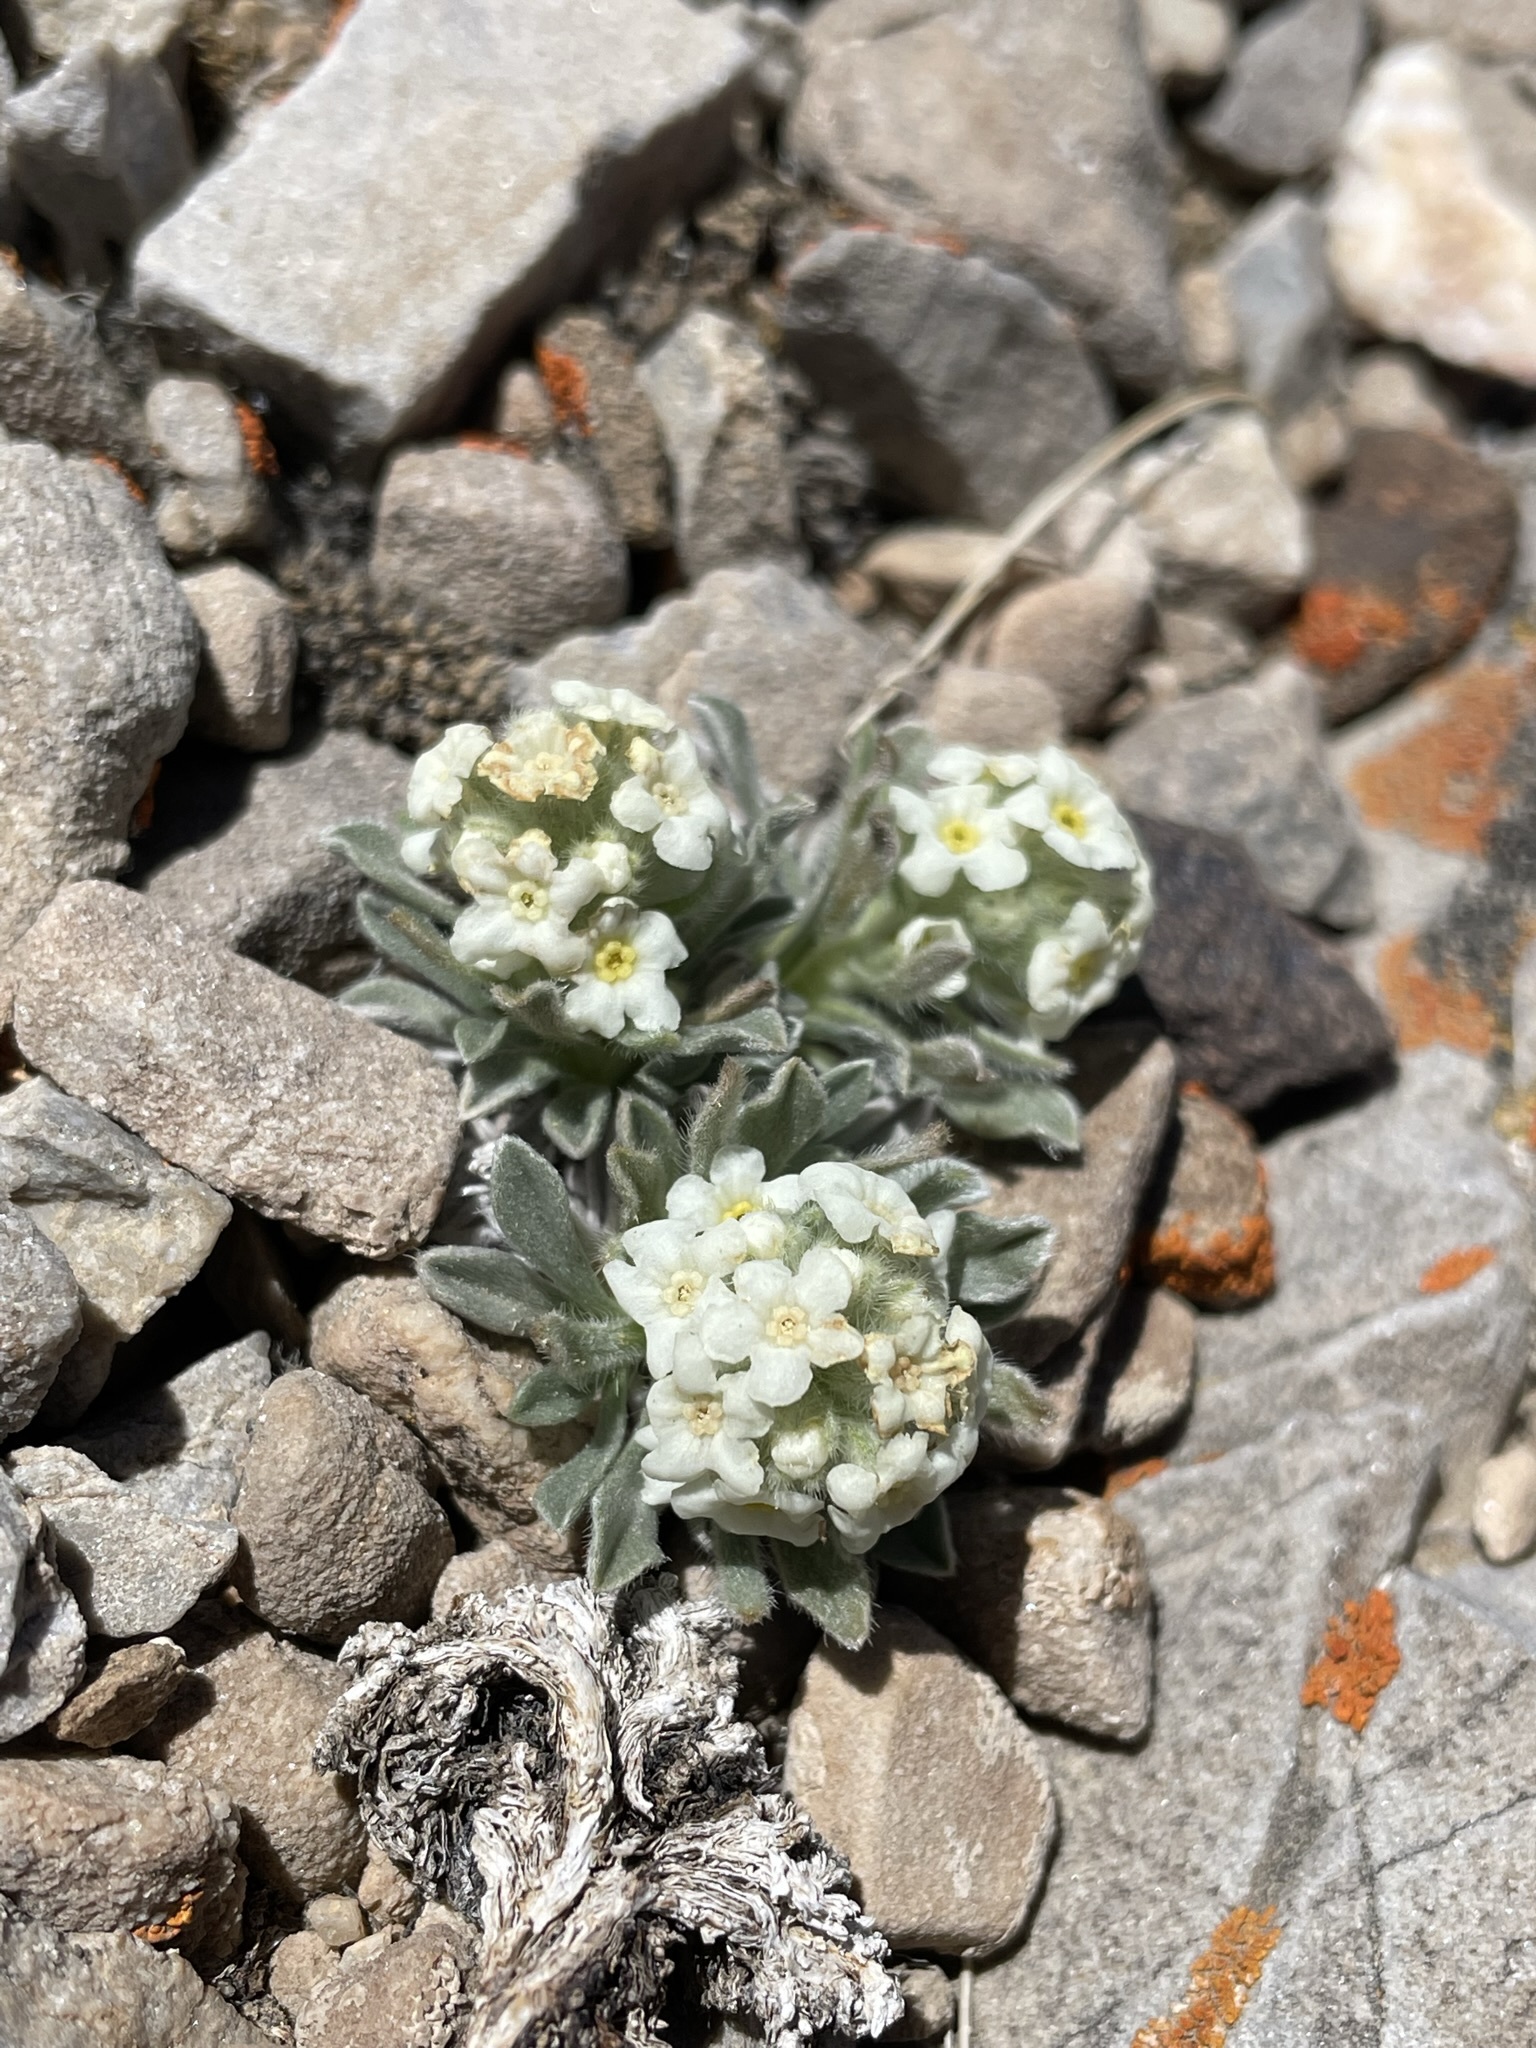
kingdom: Plantae
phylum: Tracheophyta
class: Magnoliopsida
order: Boraginales
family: Boraginaceae
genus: Oreocarya
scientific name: Oreocarya humilis
